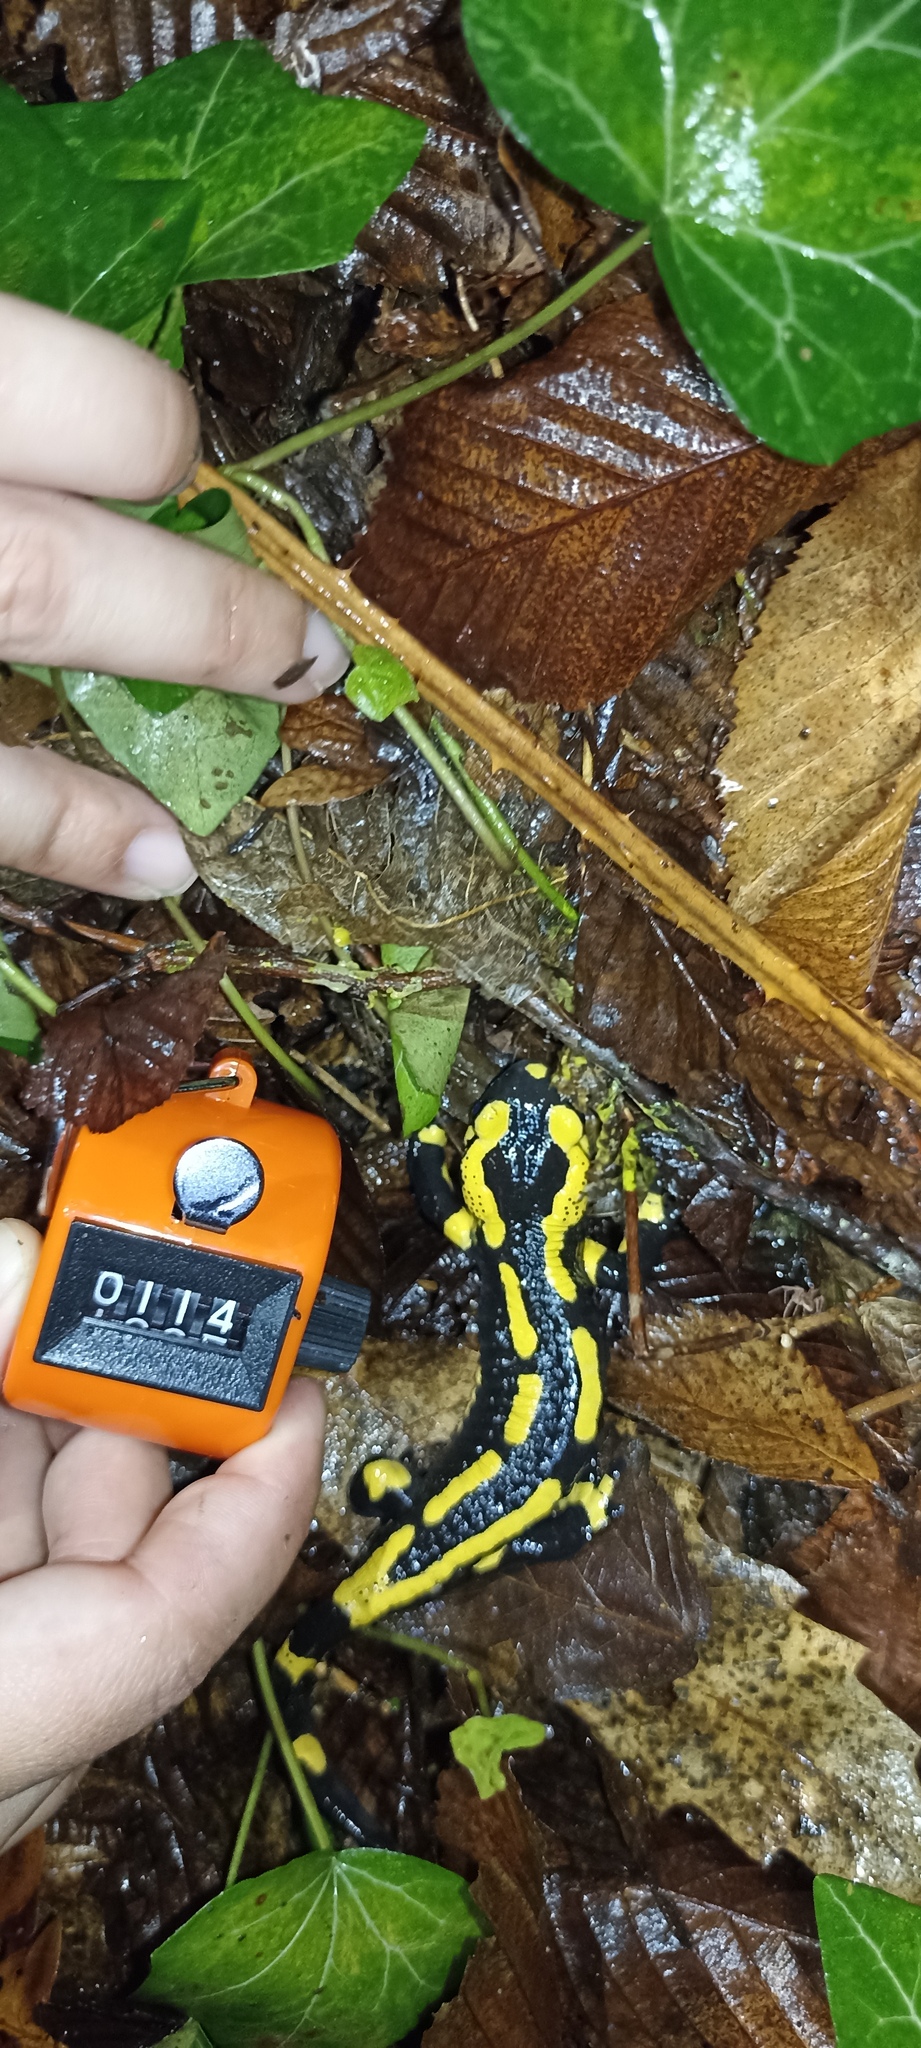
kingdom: Animalia
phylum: Chordata
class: Amphibia
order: Caudata
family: Salamandridae
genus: Salamandra
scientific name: Salamandra salamandra
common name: Fire salamander
